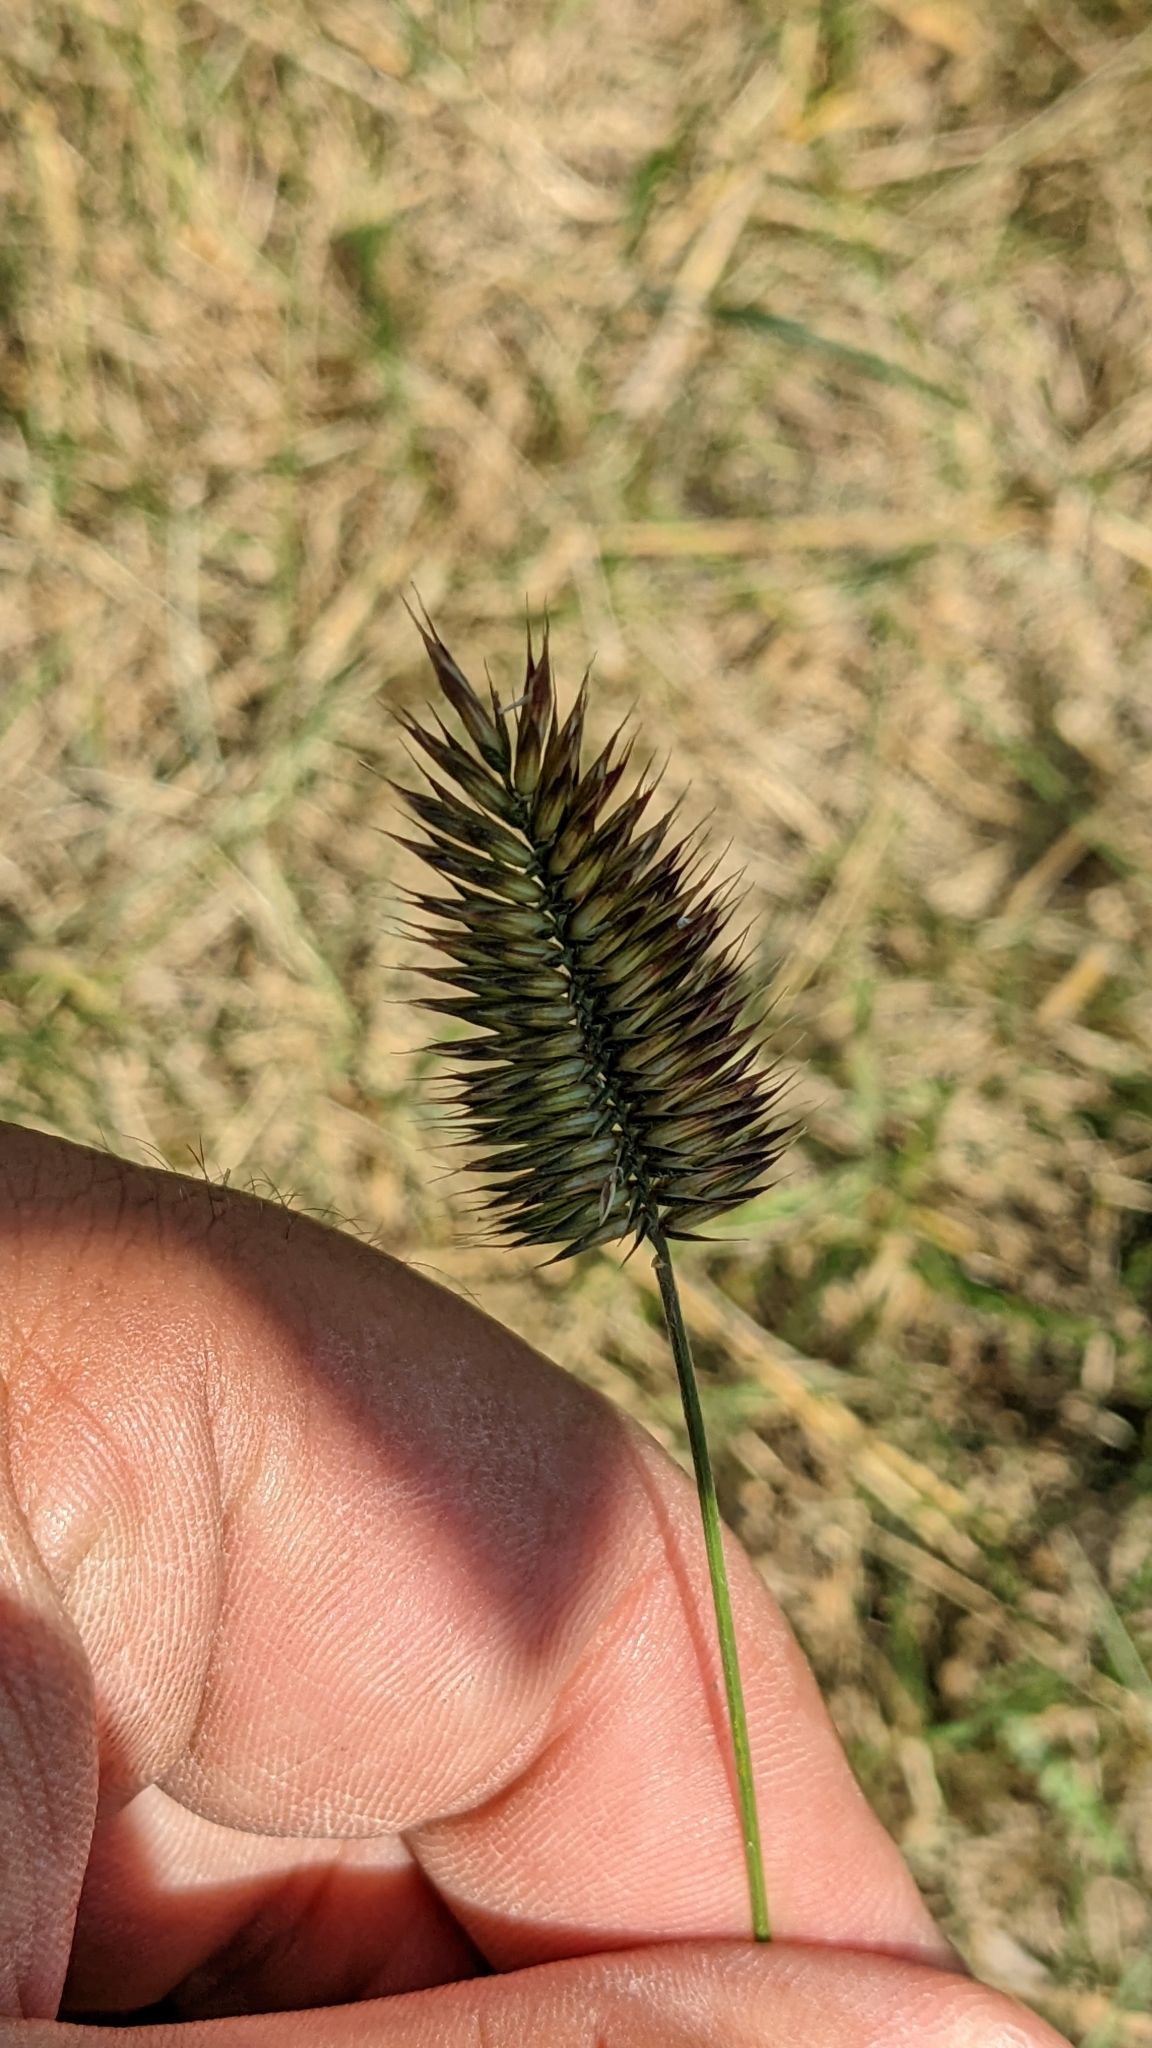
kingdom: Plantae
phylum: Tracheophyta
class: Liliopsida
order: Poales
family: Poaceae
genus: Agropyron
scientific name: Agropyron cristatum
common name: Crested wheatgrass
